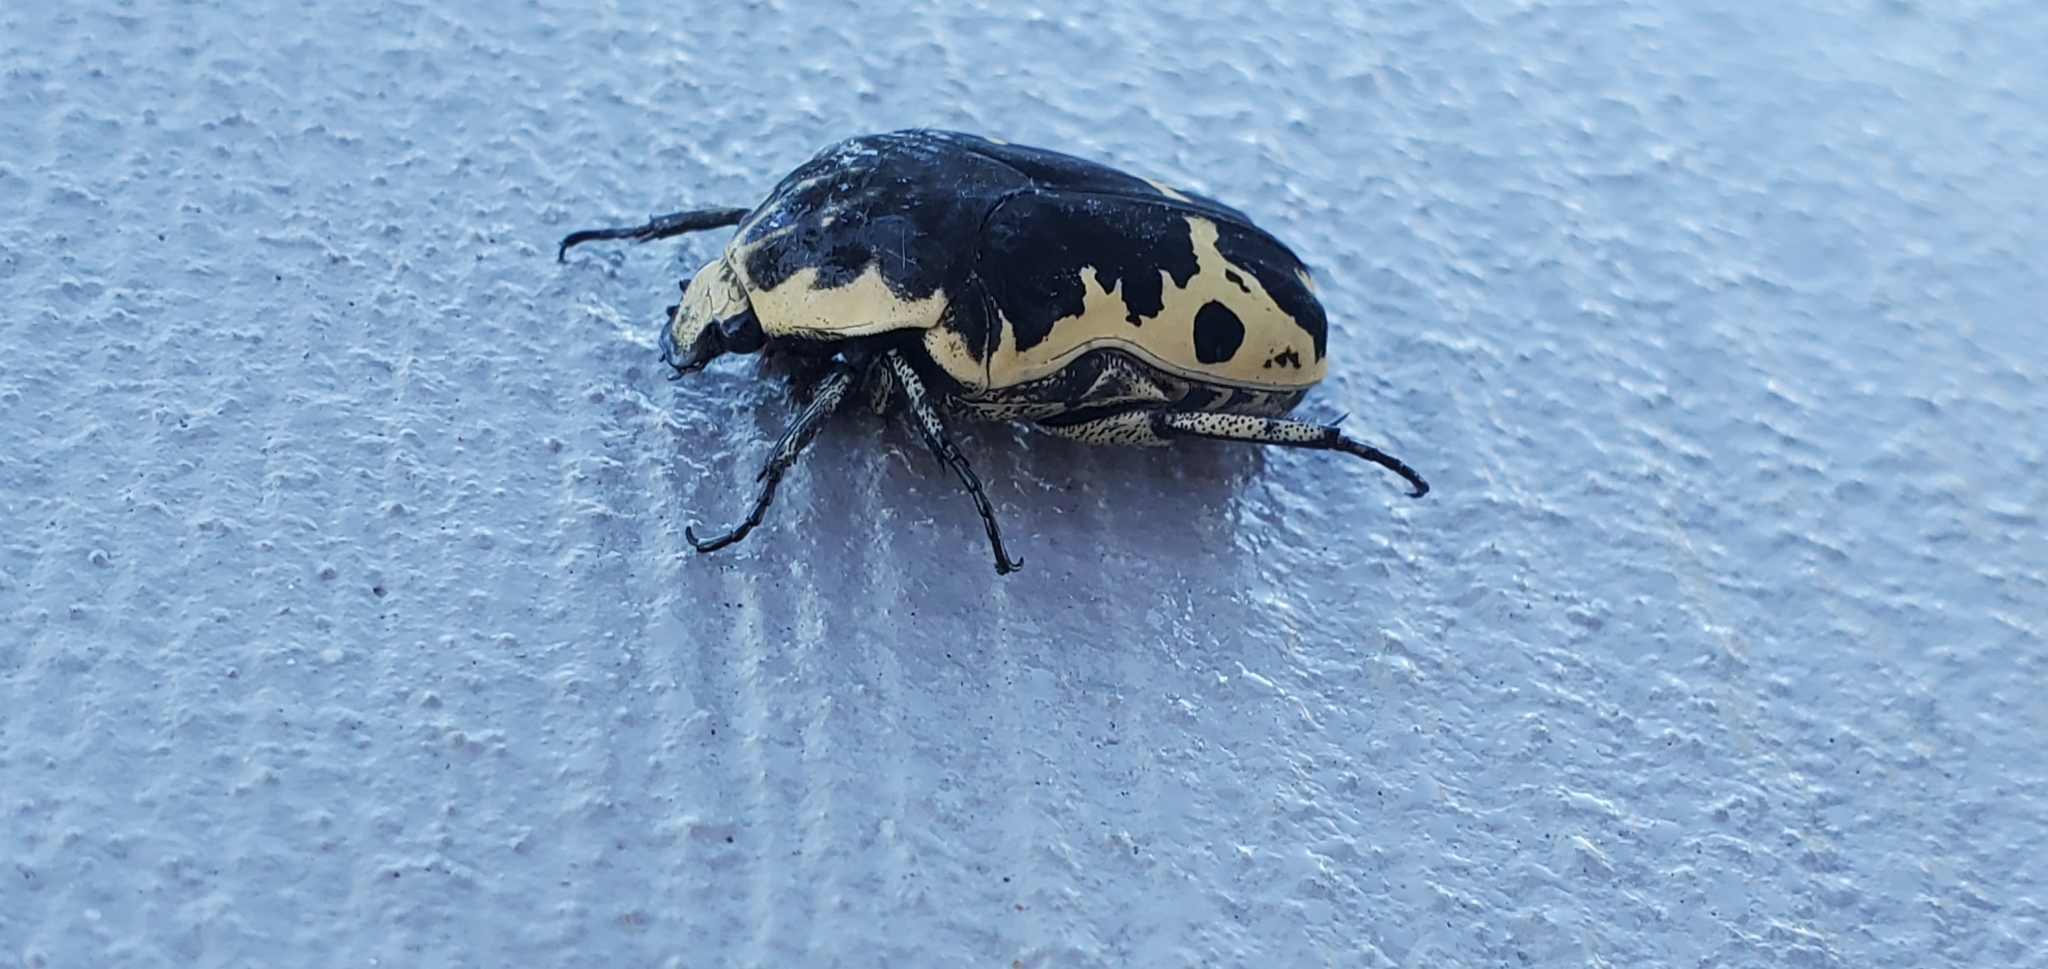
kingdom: Animalia
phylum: Arthropoda
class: Insecta
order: Coleoptera
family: Scarabaeidae
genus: Gymnetis
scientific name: Gymnetis thula
